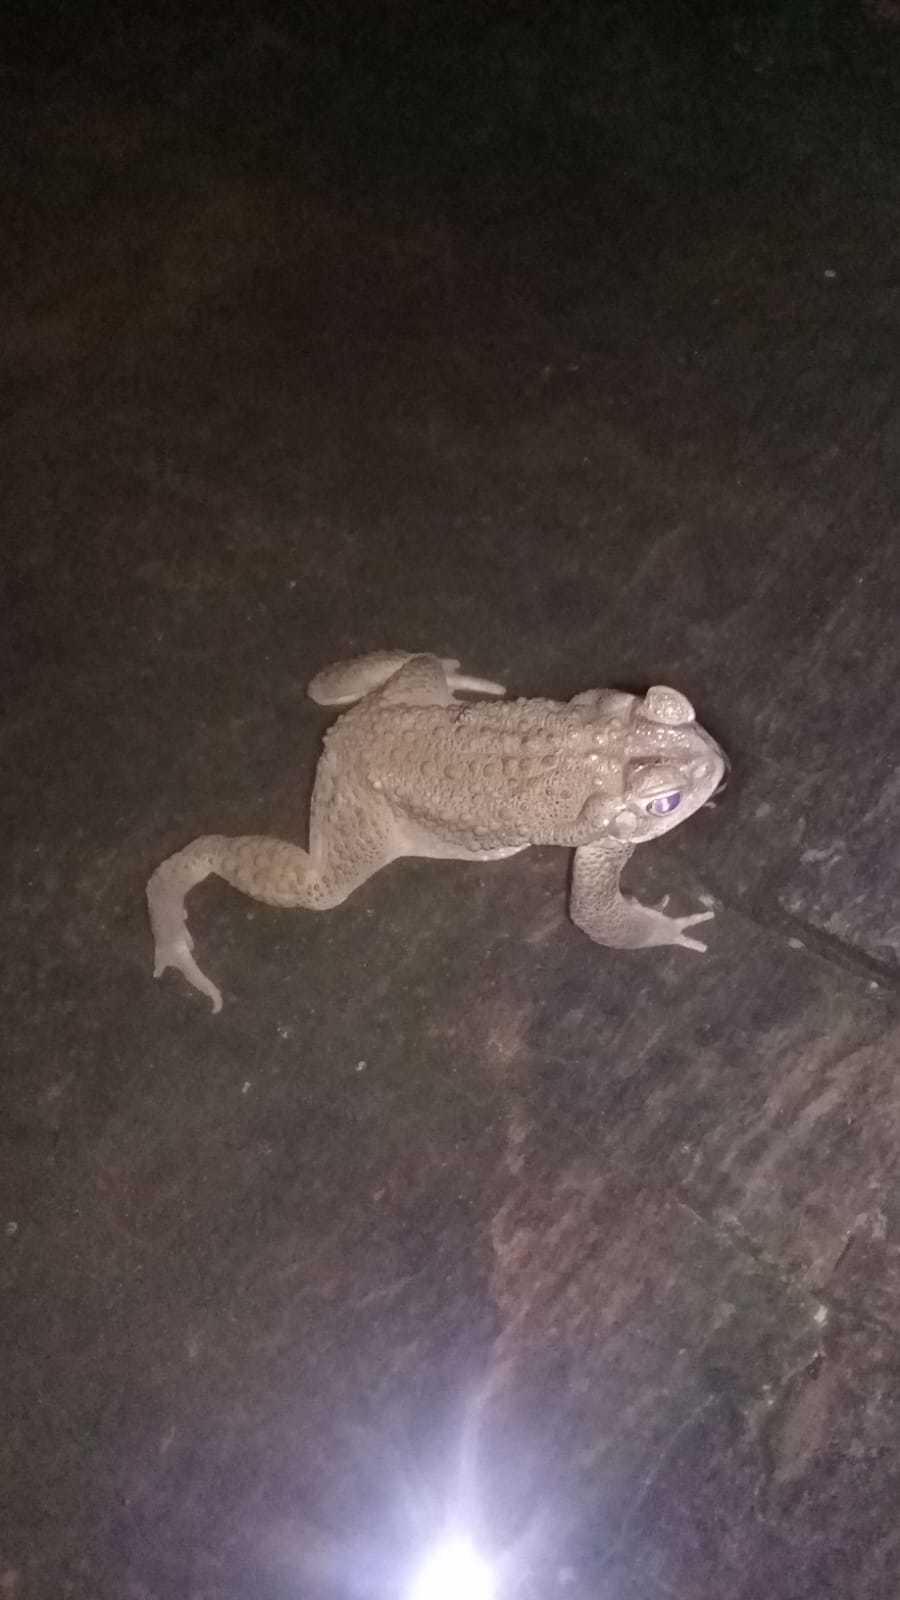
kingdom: Animalia
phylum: Chordata
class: Amphibia
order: Anura
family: Bufonidae
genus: Rhinella
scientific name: Rhinella arenarum
